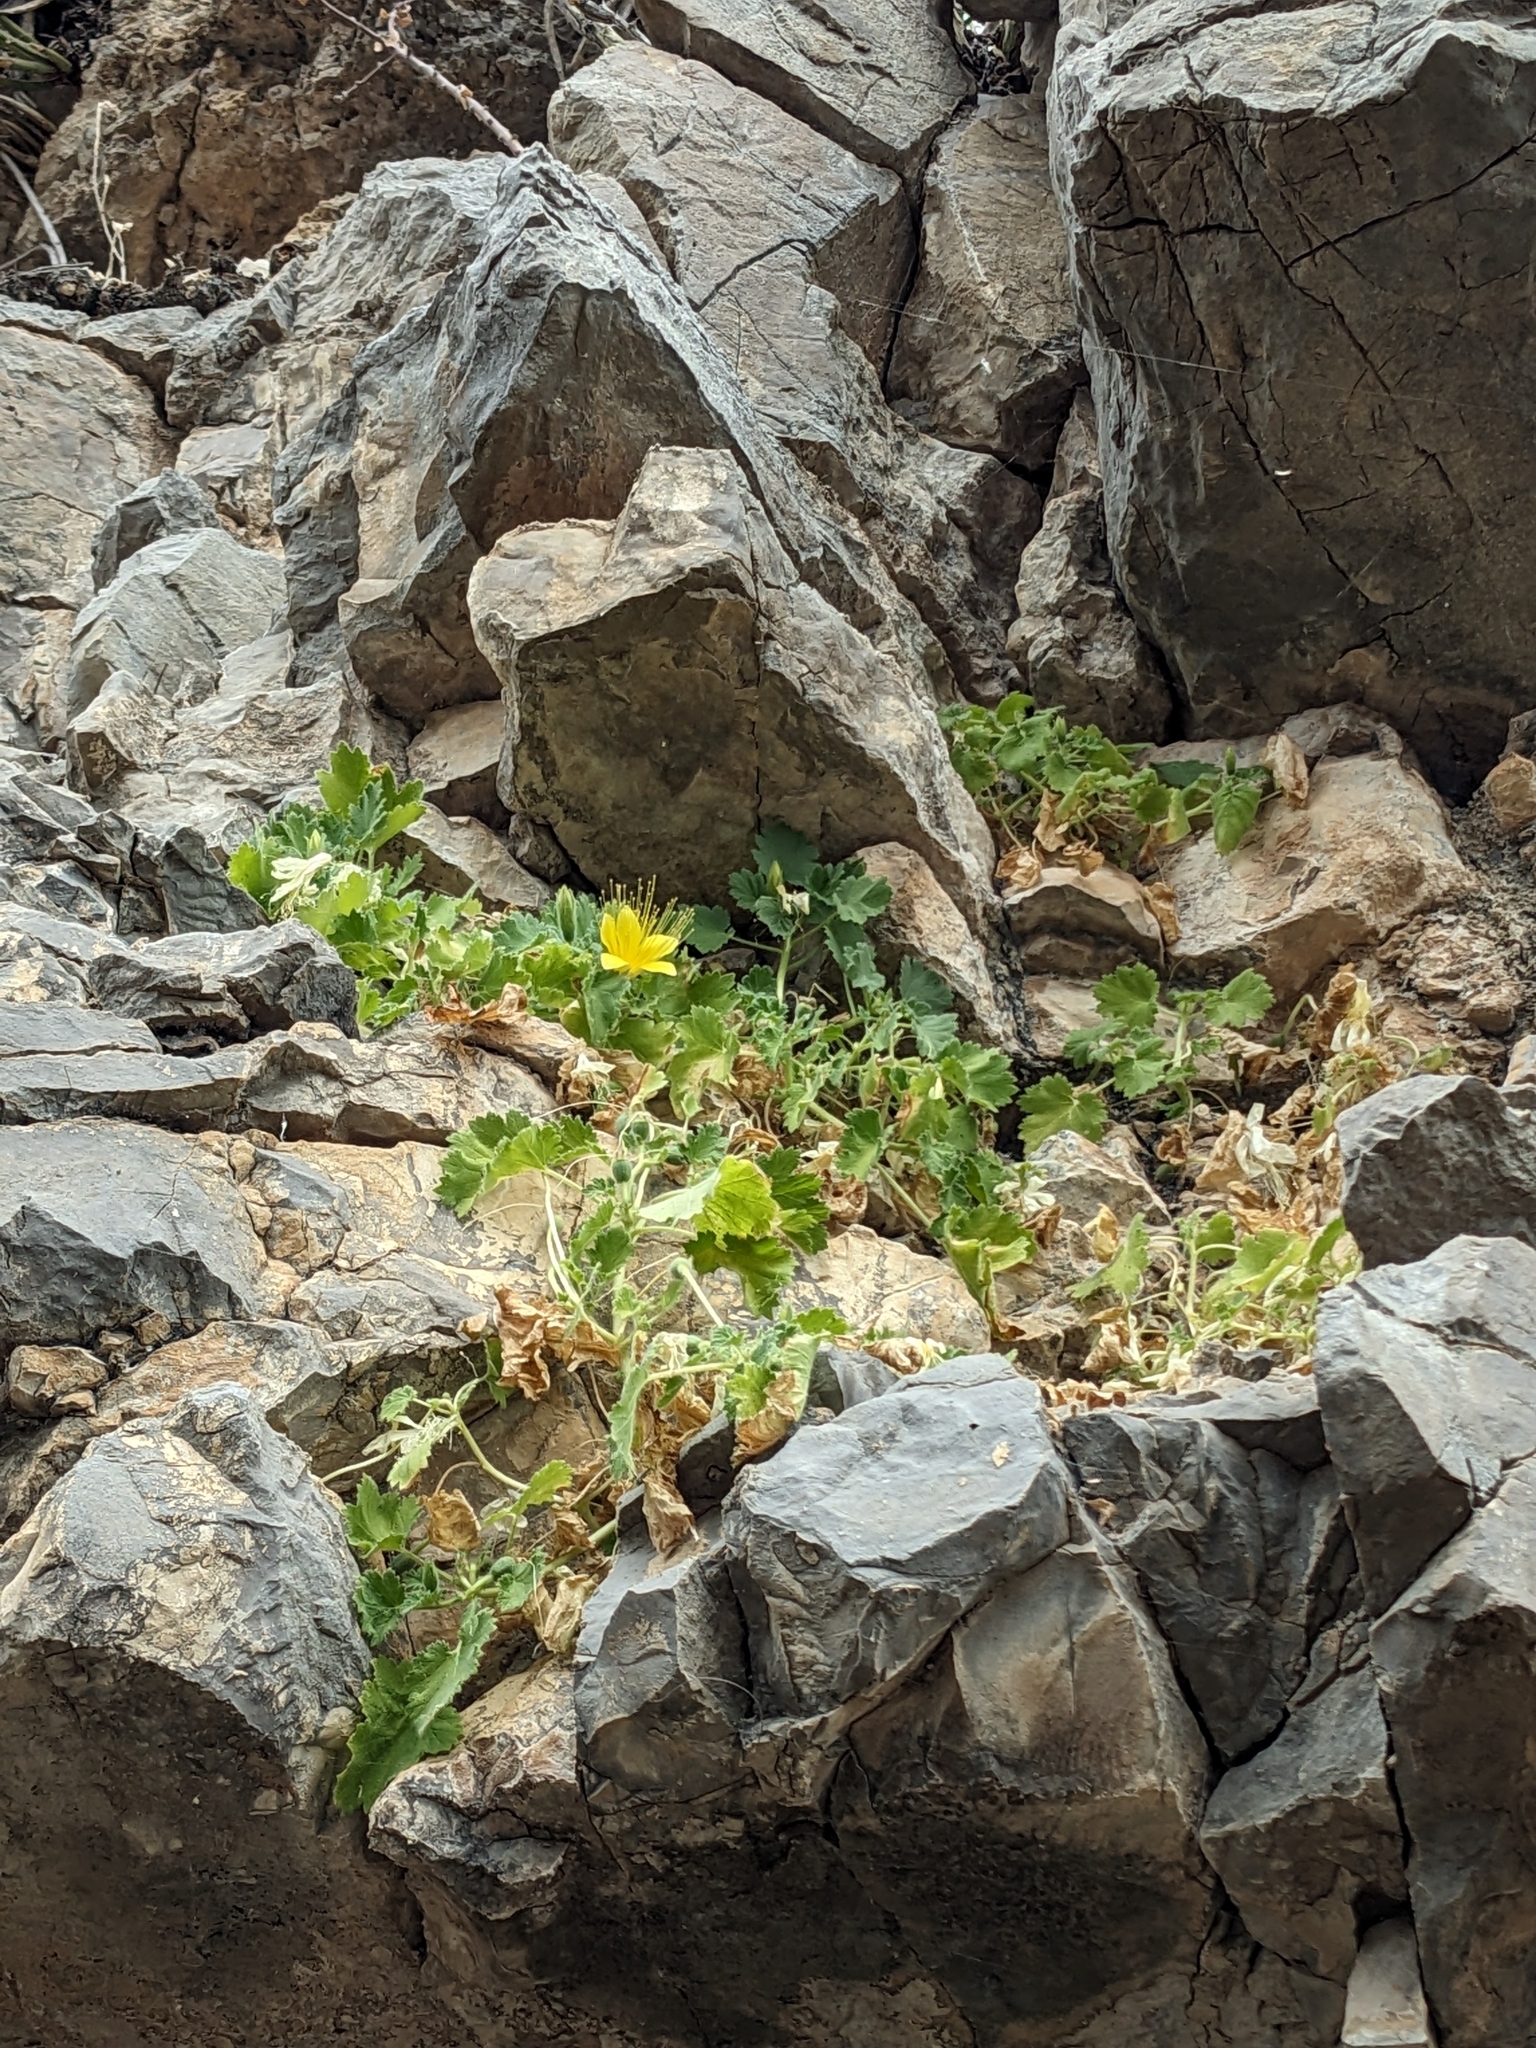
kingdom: Plantae
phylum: Tracheophyta
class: Magnoliopsida
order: Cornales
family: Loasaceae
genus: Eucnide
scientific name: Eucnide bartonioides
